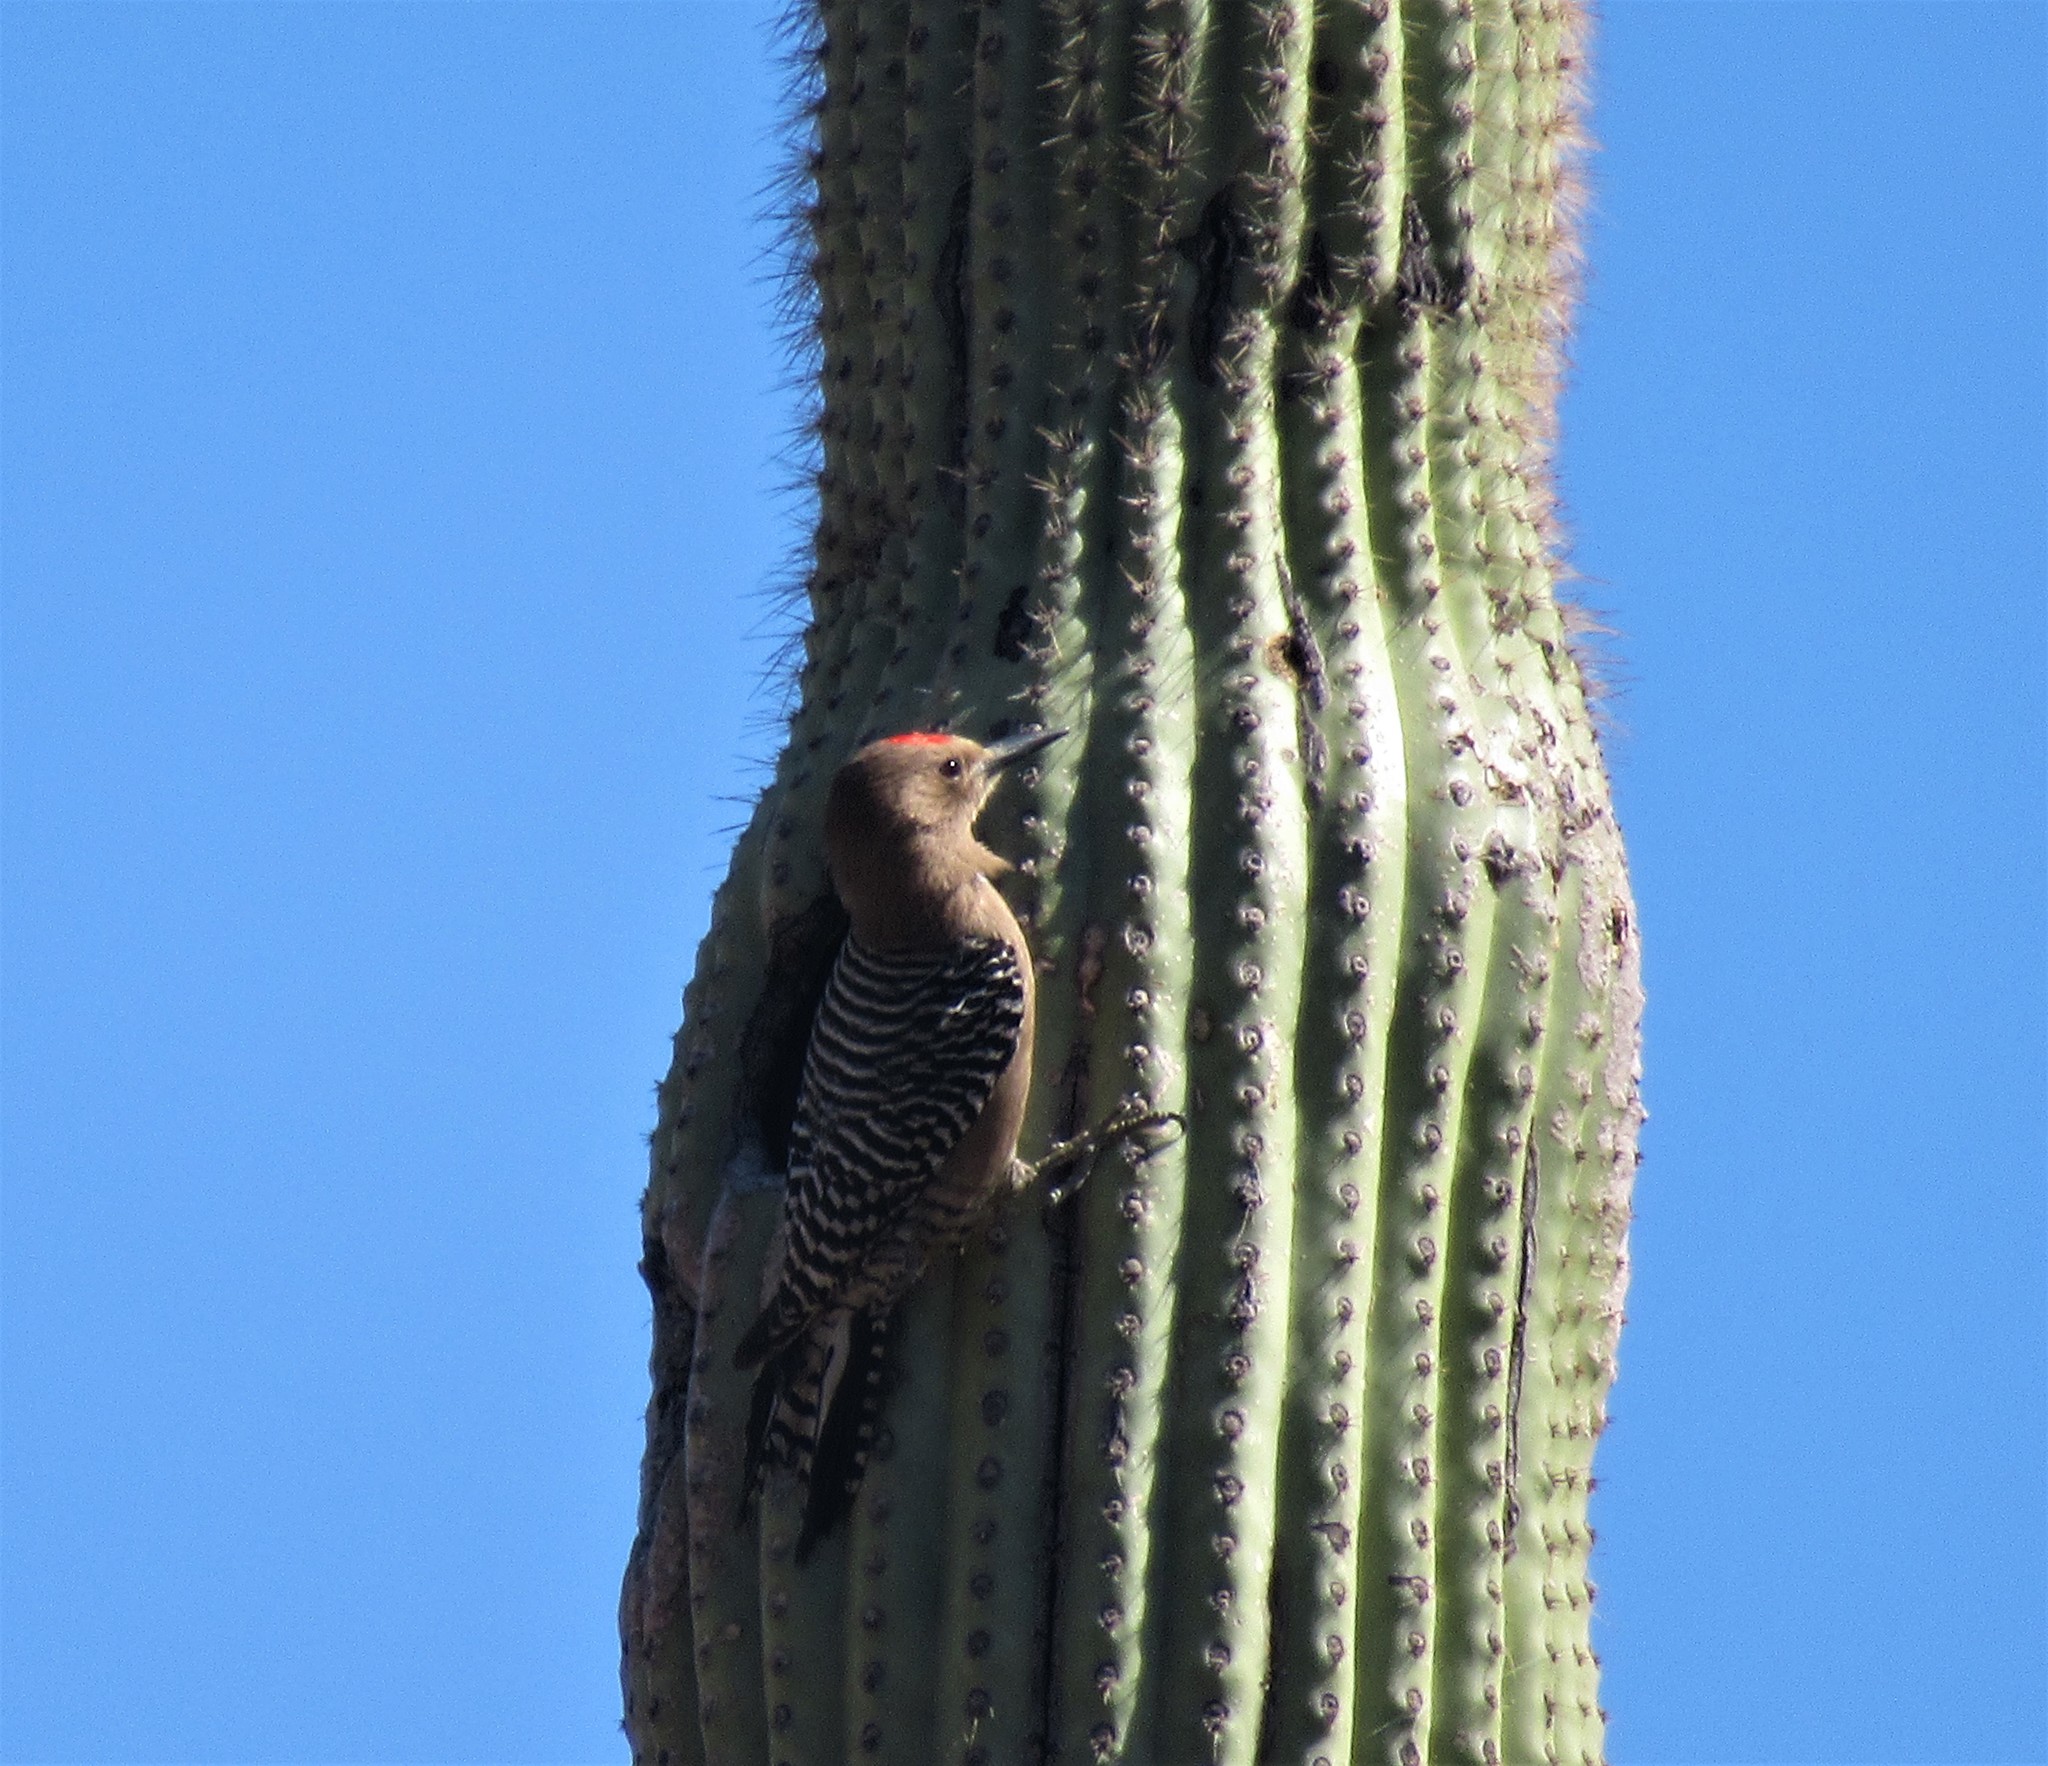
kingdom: Animalia
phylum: Chordata
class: Aves
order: Piciformes
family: Picidae
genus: Melanerpes
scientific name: Melanerpes uropygialis
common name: Gila woodpecker
